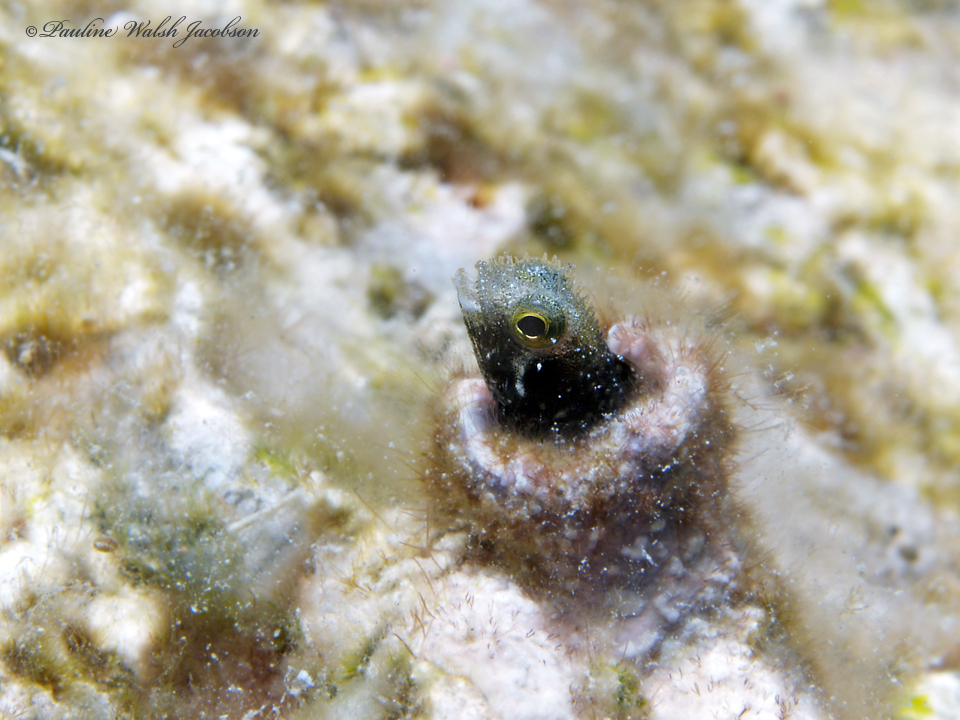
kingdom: Animalia
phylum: Chordata
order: Perciformes
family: Chaenopsidae
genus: Acanthemblemaria
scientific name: Acanthemblemaria spinosa
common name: Spinyhead blenny
